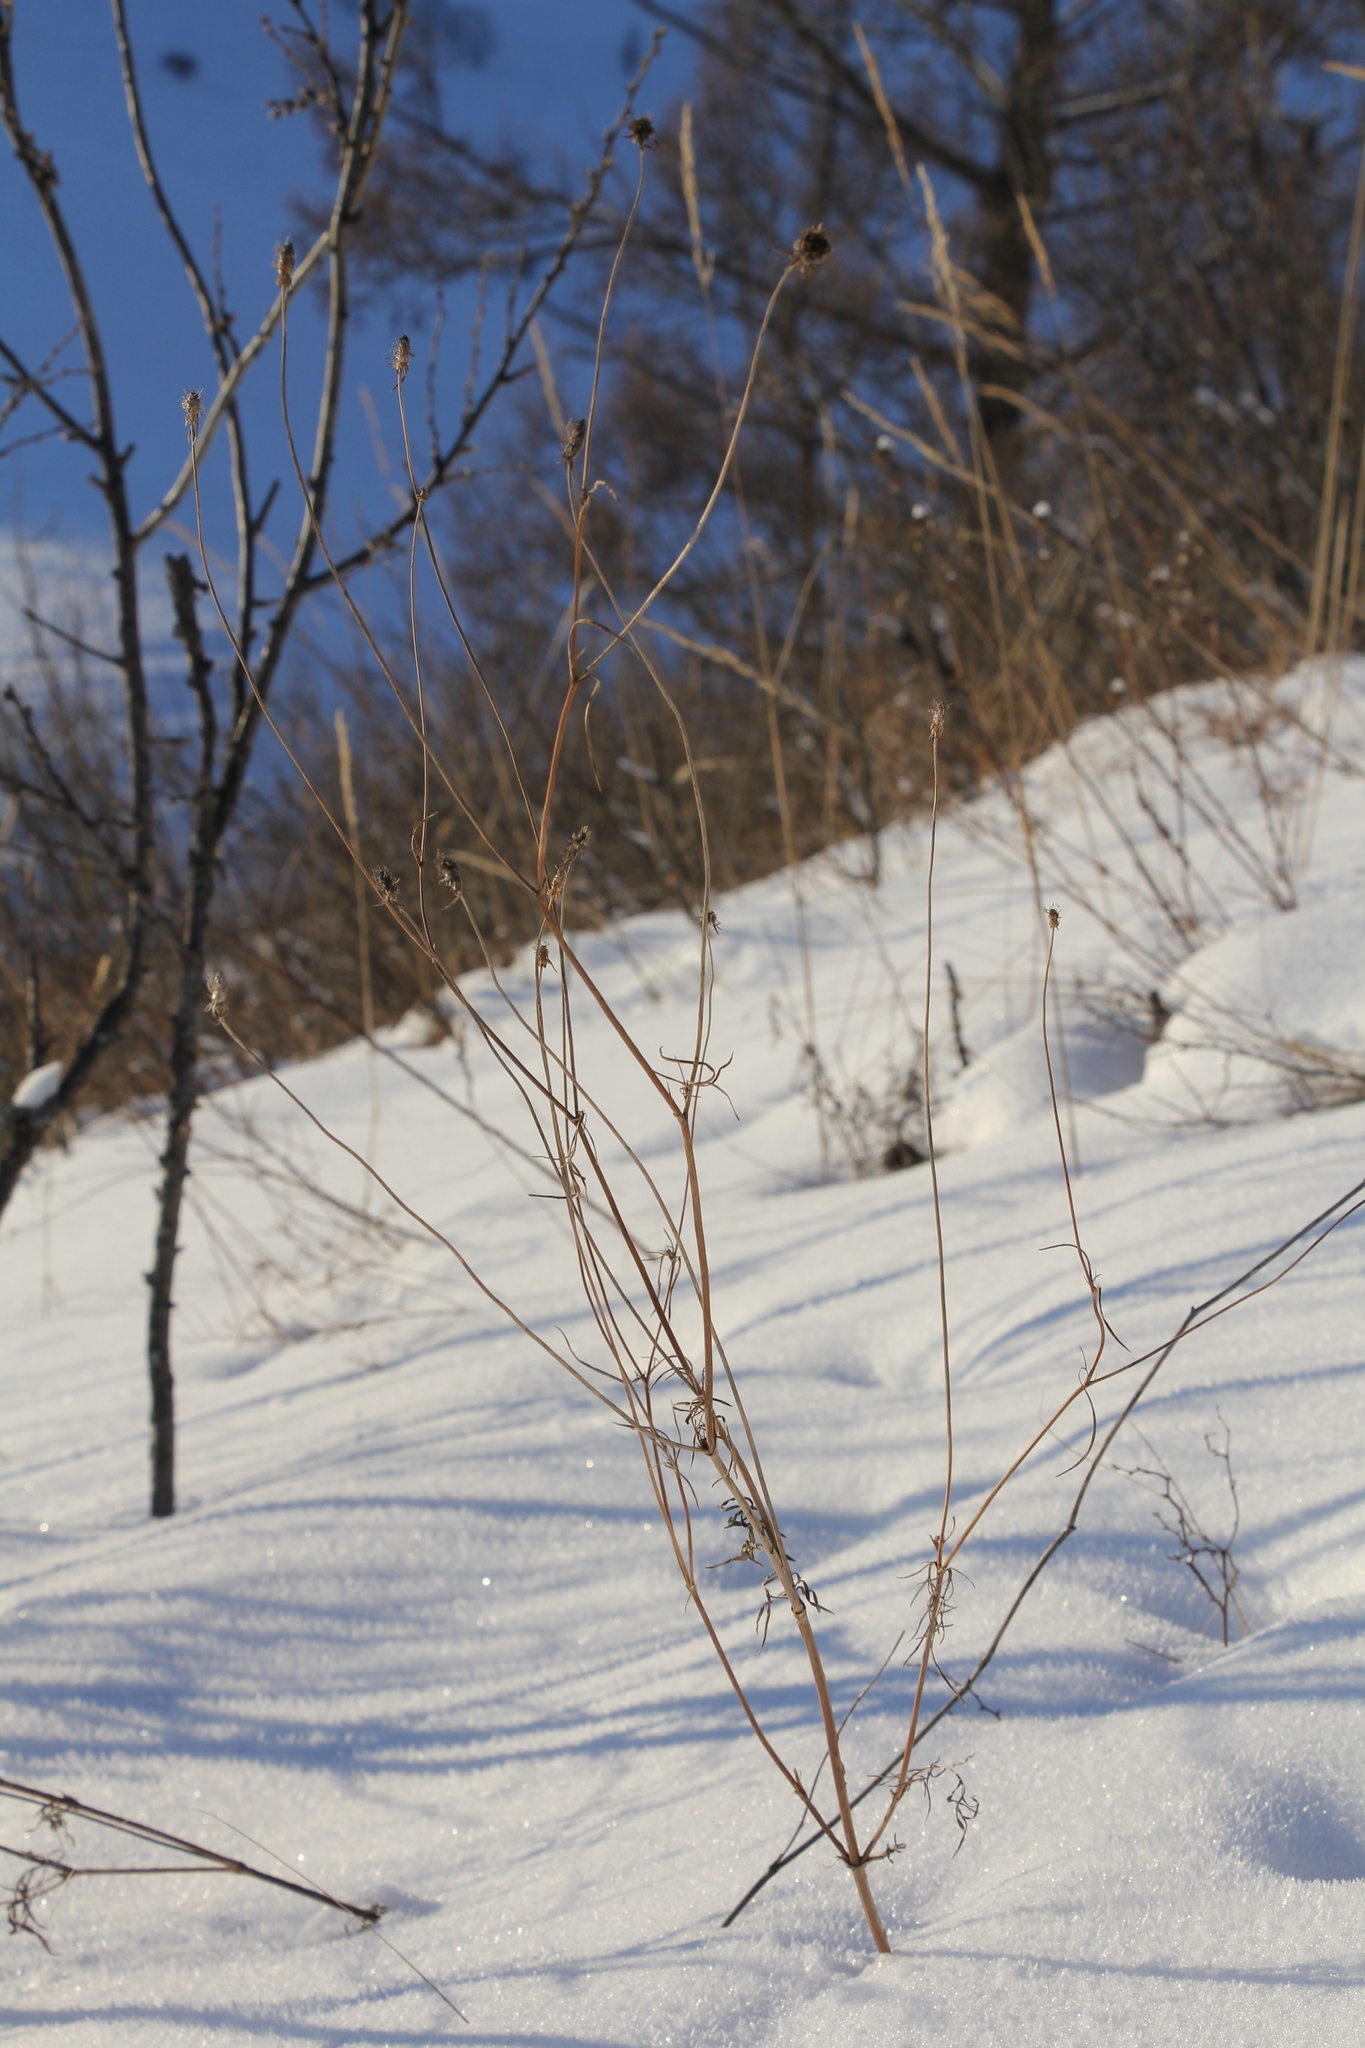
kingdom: Plantae
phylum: Tracheophyta
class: Magnoliopsida
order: Dipsacales
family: Caprifoliaceae
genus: Scabiosa
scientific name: Scabiosa ochroleuca
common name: Cream pincushions
